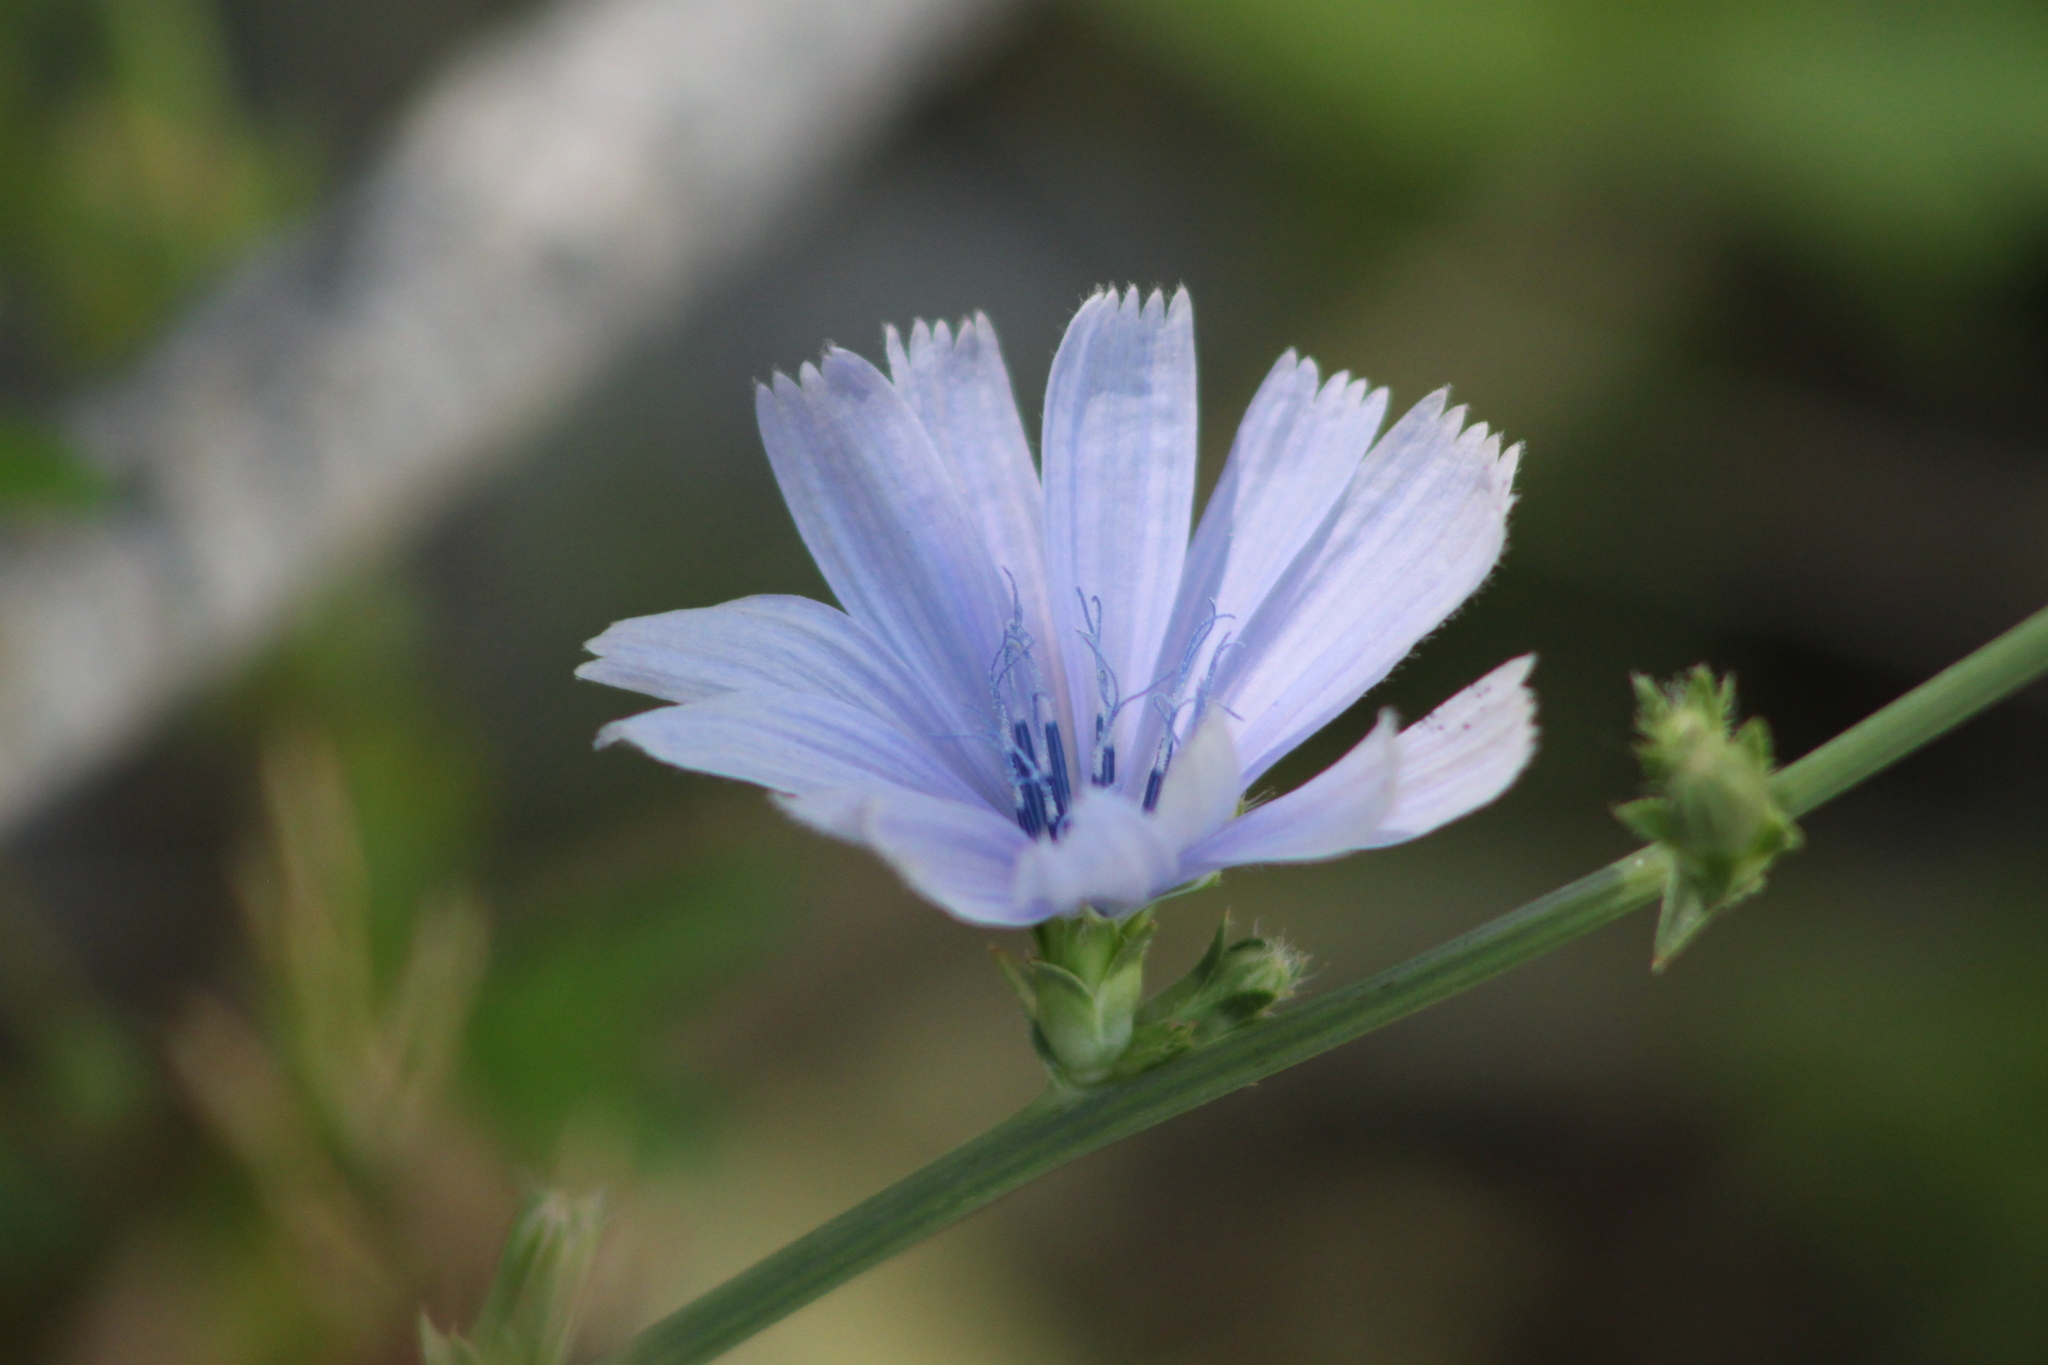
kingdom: Plantae
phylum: Tracheophyta
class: Magnoliopsida
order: Asterales
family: Asteraceae
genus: Cichorium
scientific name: Cichorium intybus
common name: Chicory
